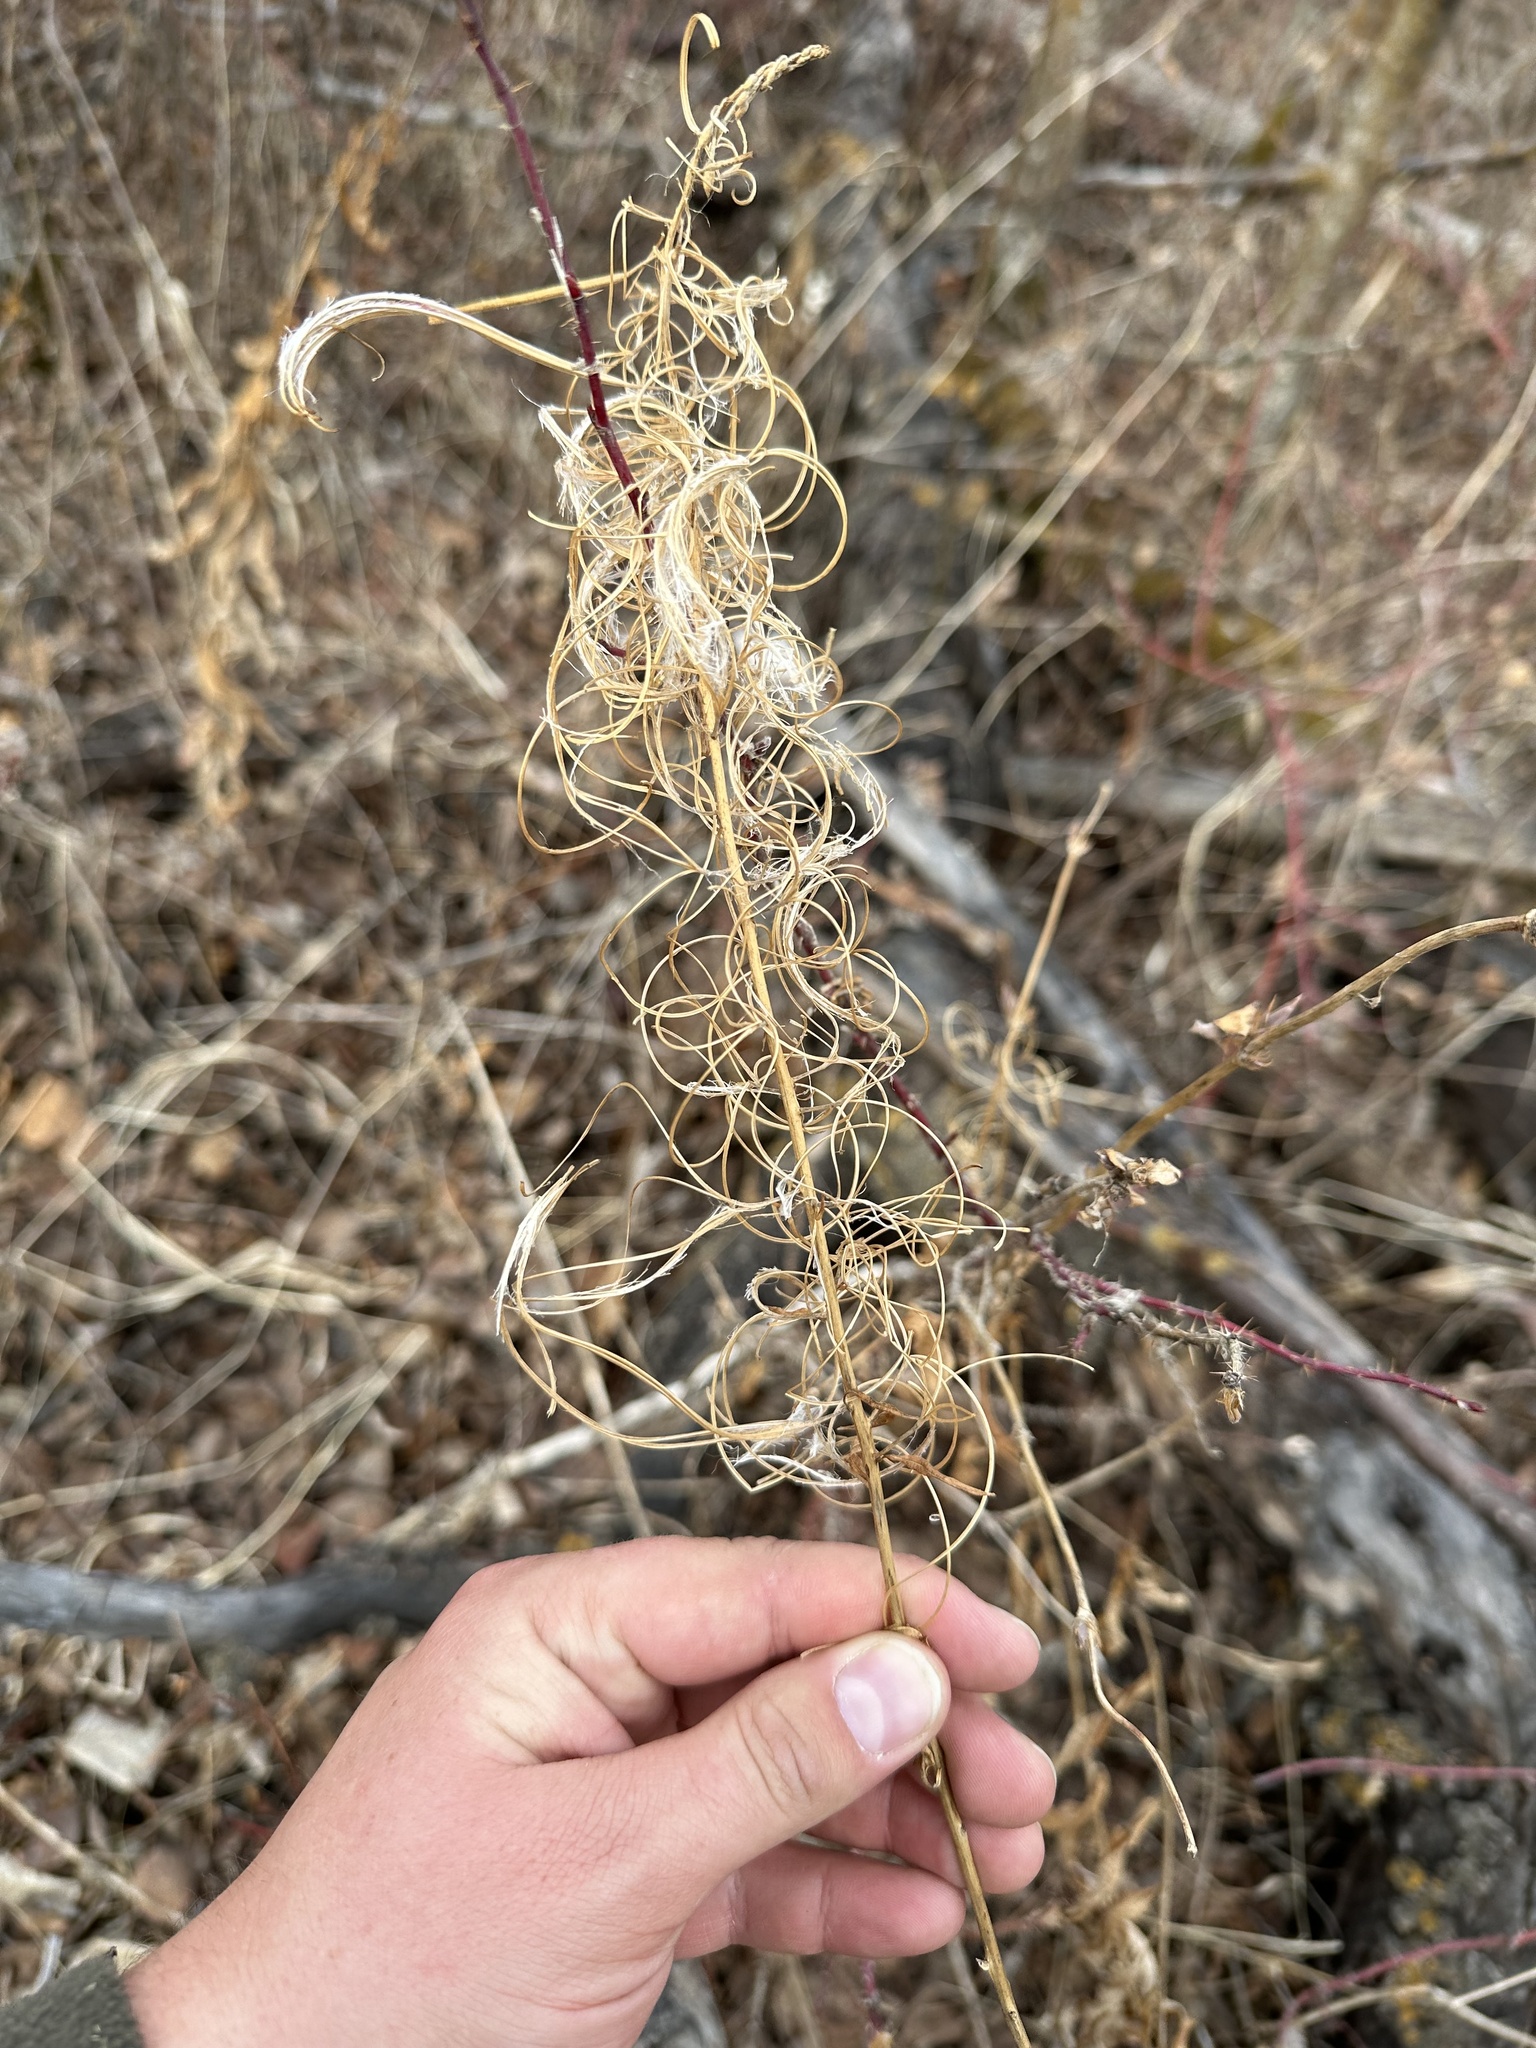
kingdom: Plantae
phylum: Tracheophyta
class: Magnoliopsida
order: Myrtales
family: Onagraceae
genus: Chamaenerion
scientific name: Chamaenerion angustifolium
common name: Fireweed
